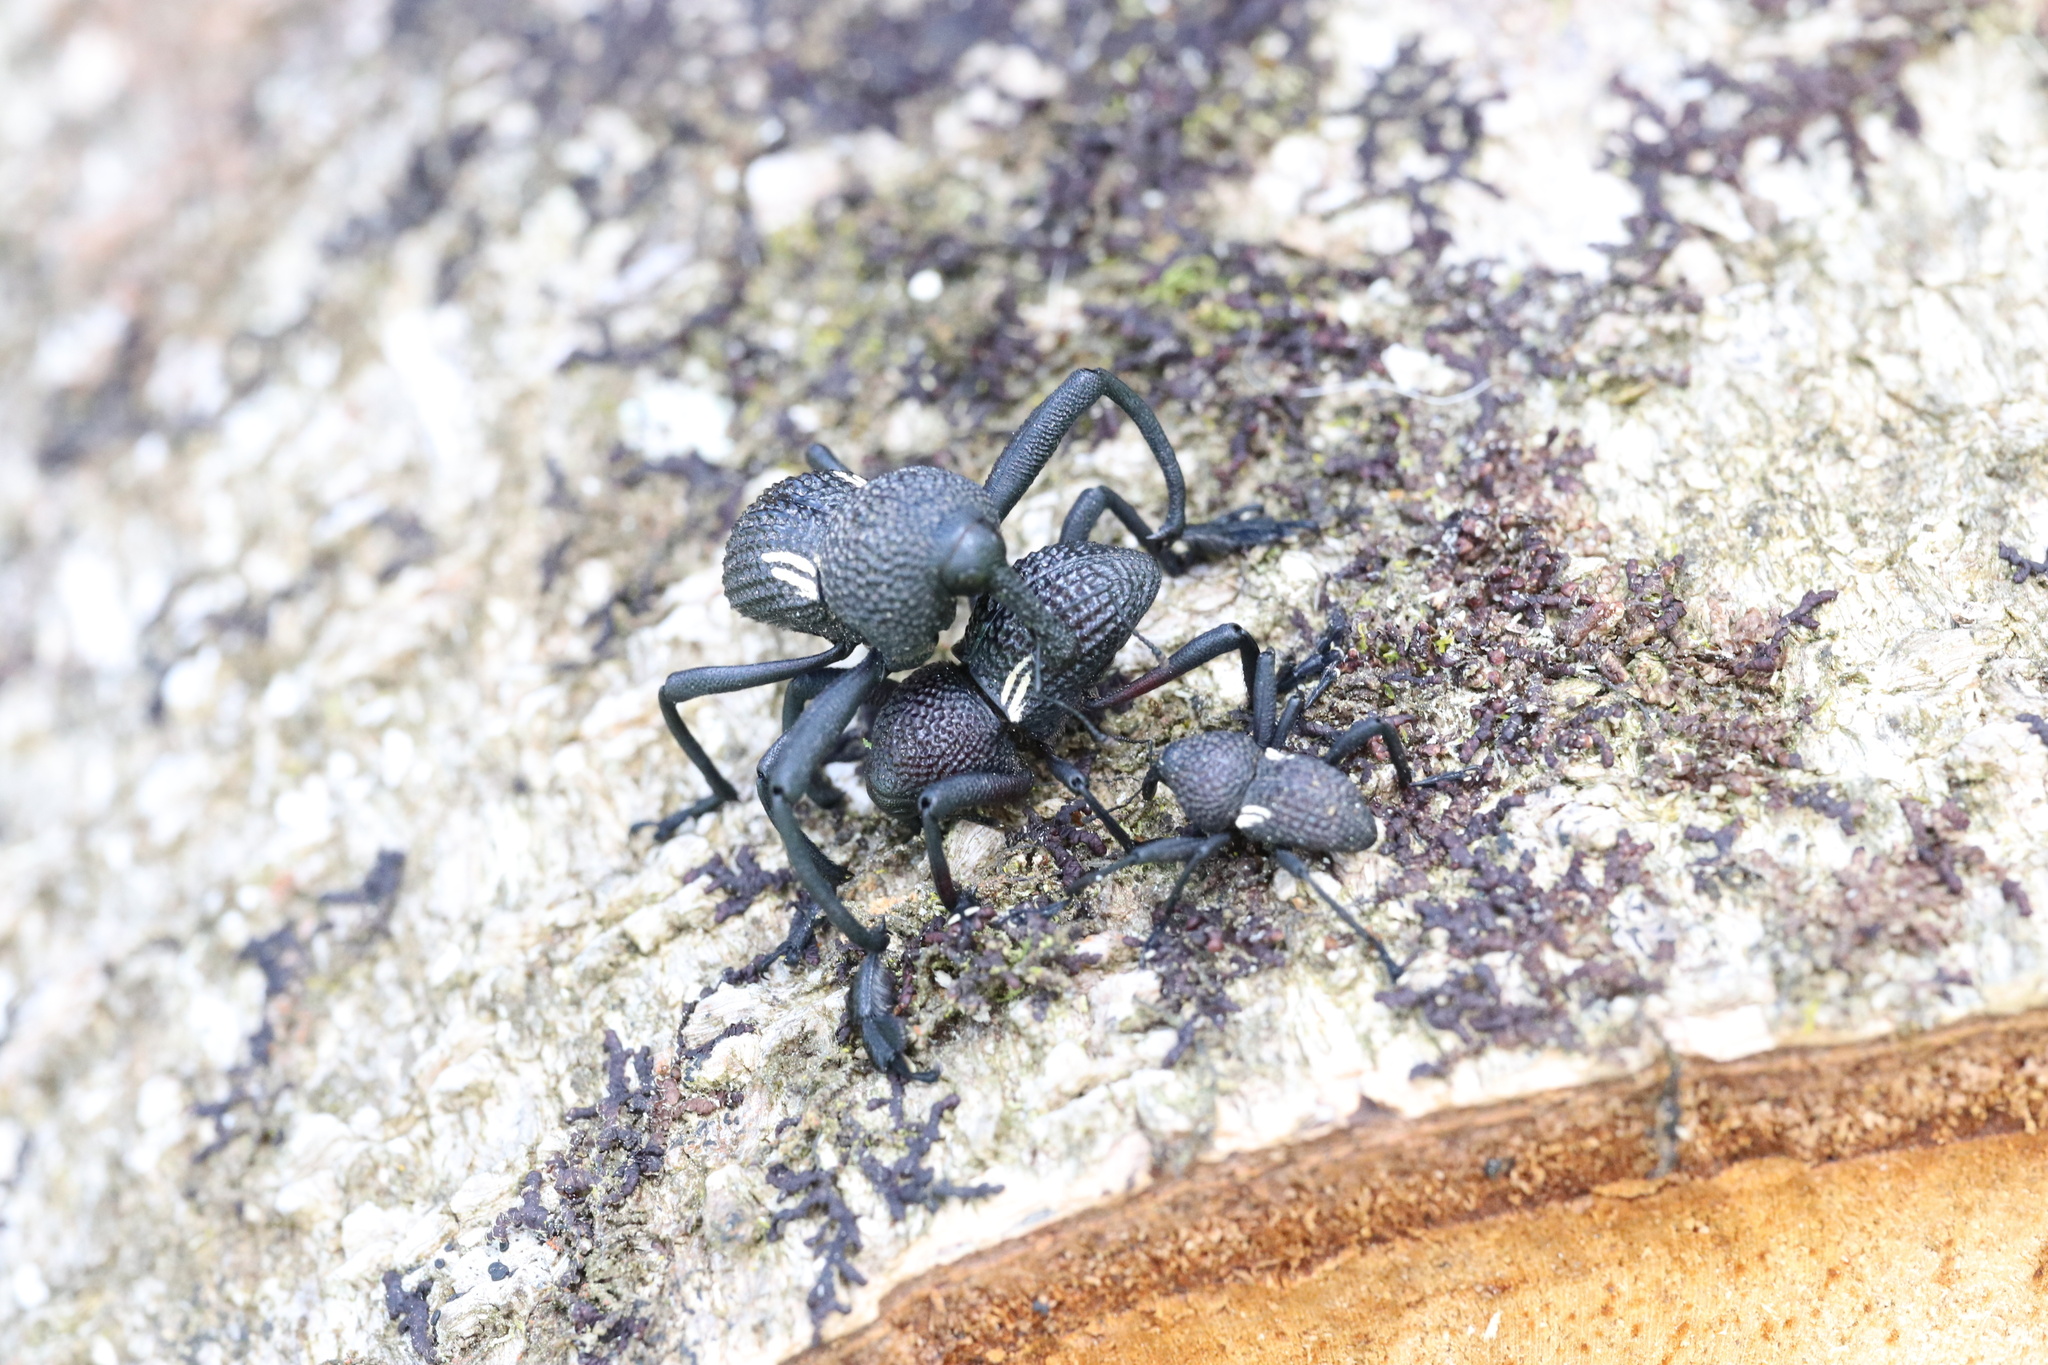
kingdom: Animalia
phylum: Arthropoda
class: Insecta
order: Coleoptera
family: Curculionidae
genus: Rhyephenes
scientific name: Rhyephenes humeralis
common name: Araè±ita chilena del pino
